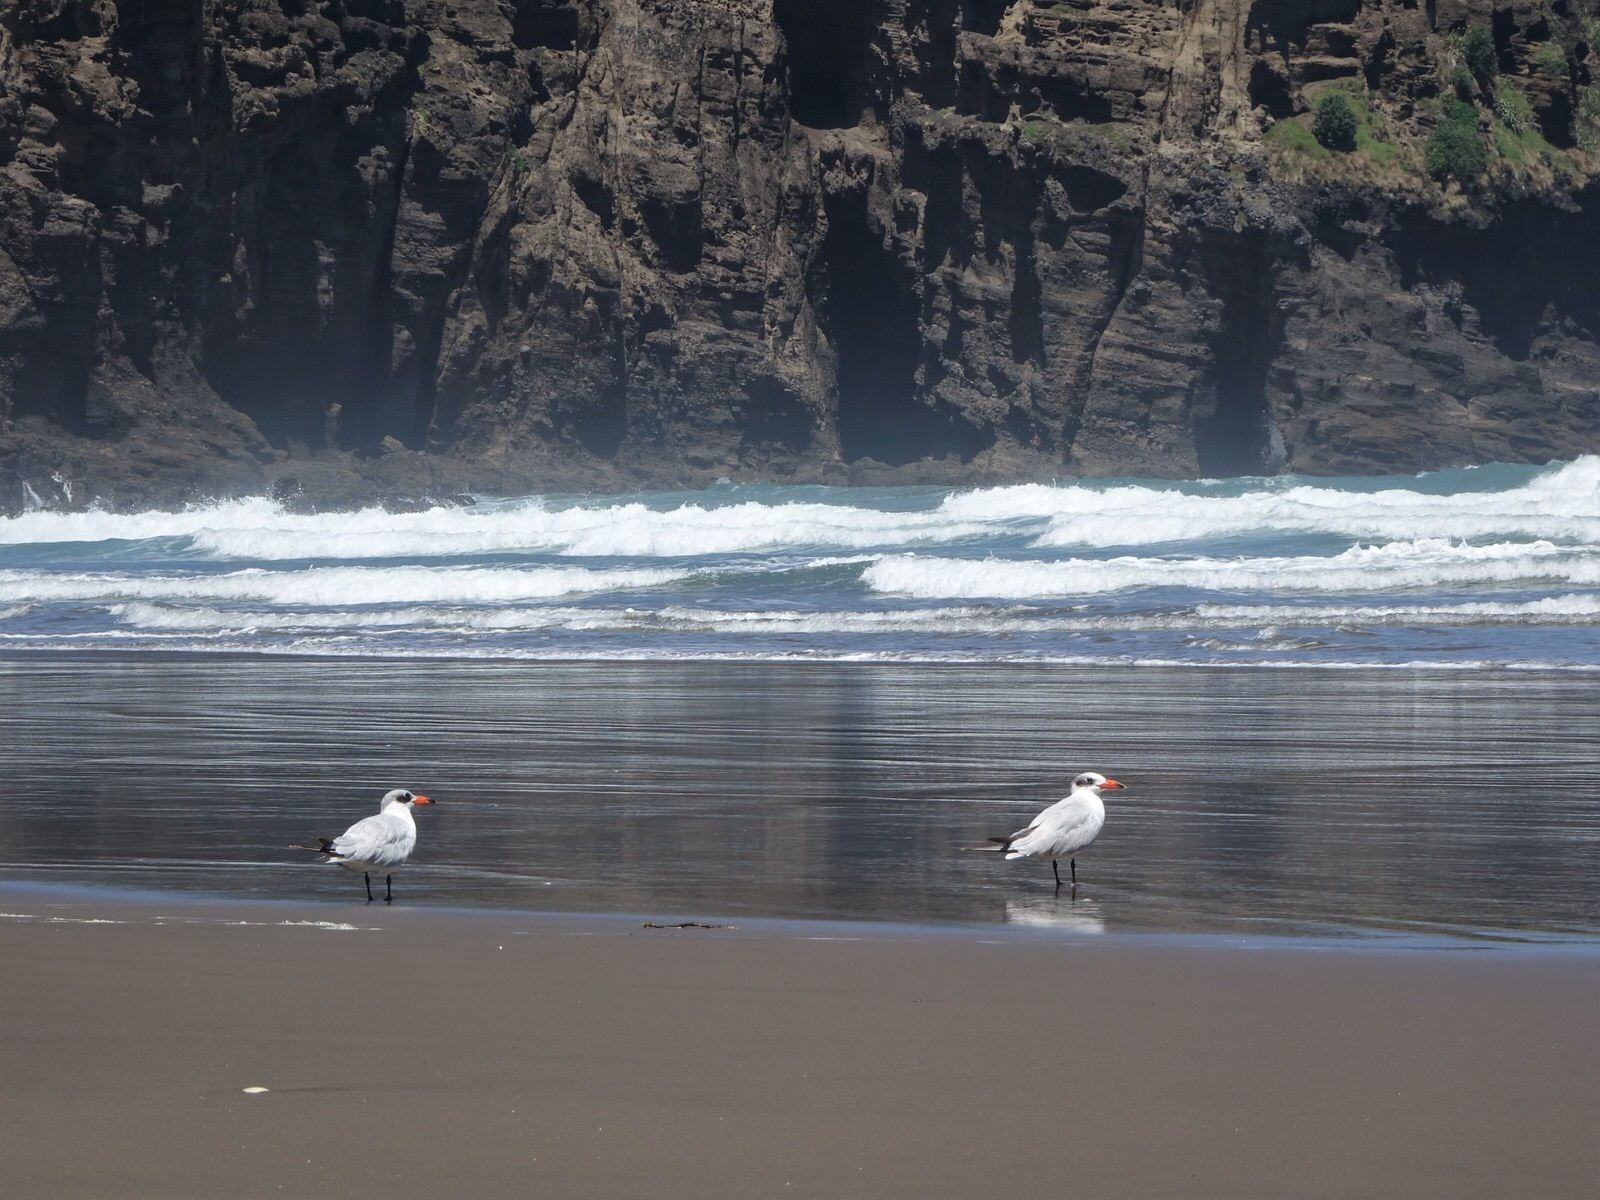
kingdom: Animalia
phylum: Chordata
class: Aves
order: Charadriiformes
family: Laridae
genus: Hydroprogne
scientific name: Hydroprogne caspia
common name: Caspian tern
